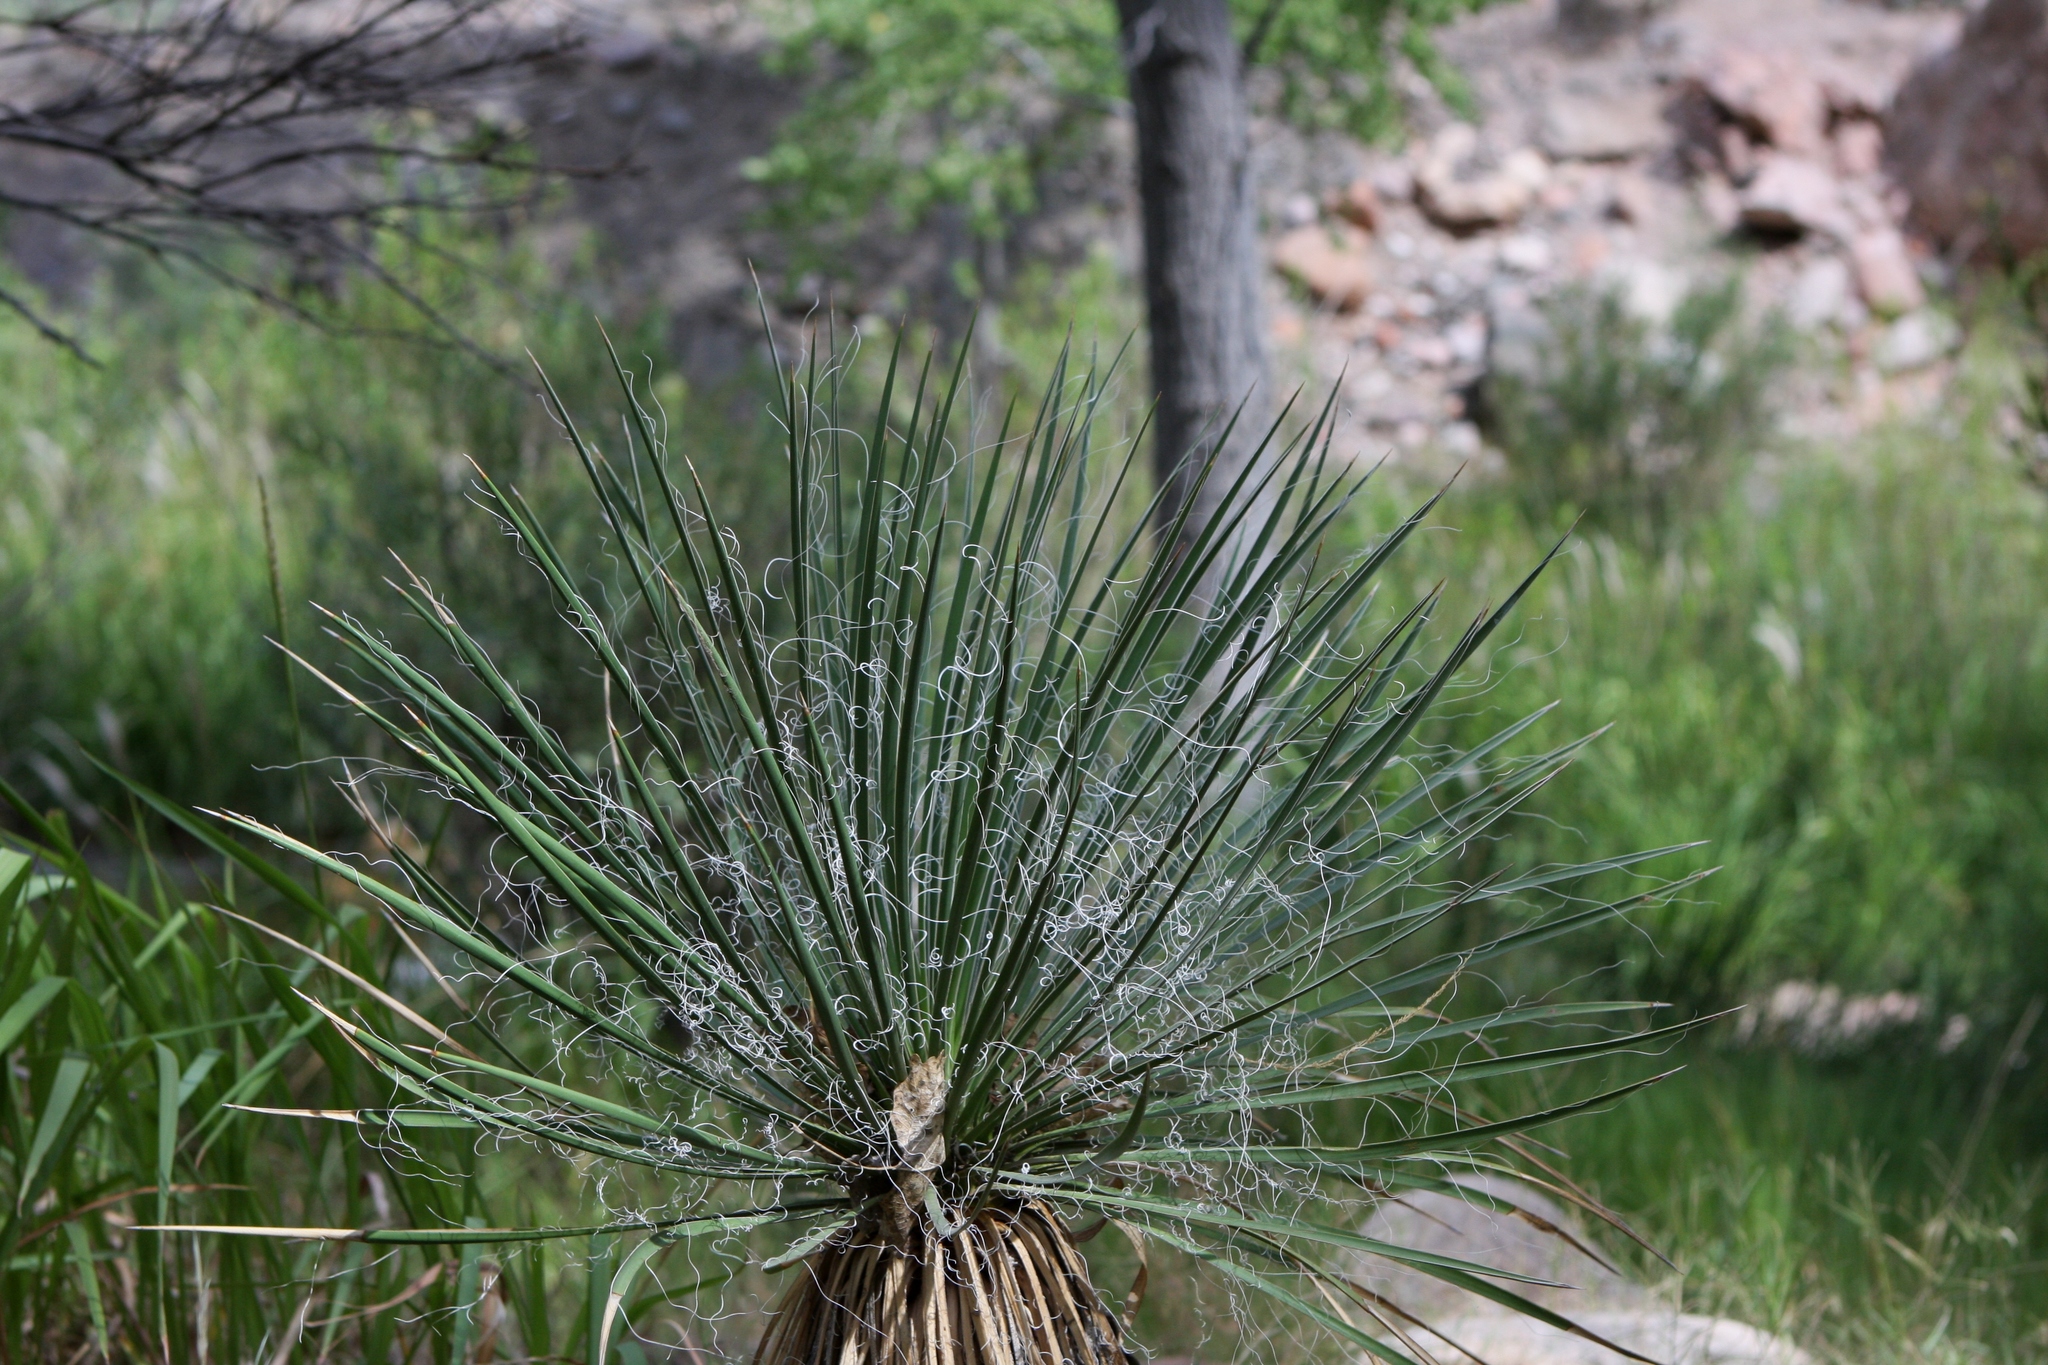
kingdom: Plantae
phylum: Tracheophyta
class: Liliopsida
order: Asparagales
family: Asparagaceae
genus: Yucca
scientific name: Yucca angustissima
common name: Narrowleaf yucca
